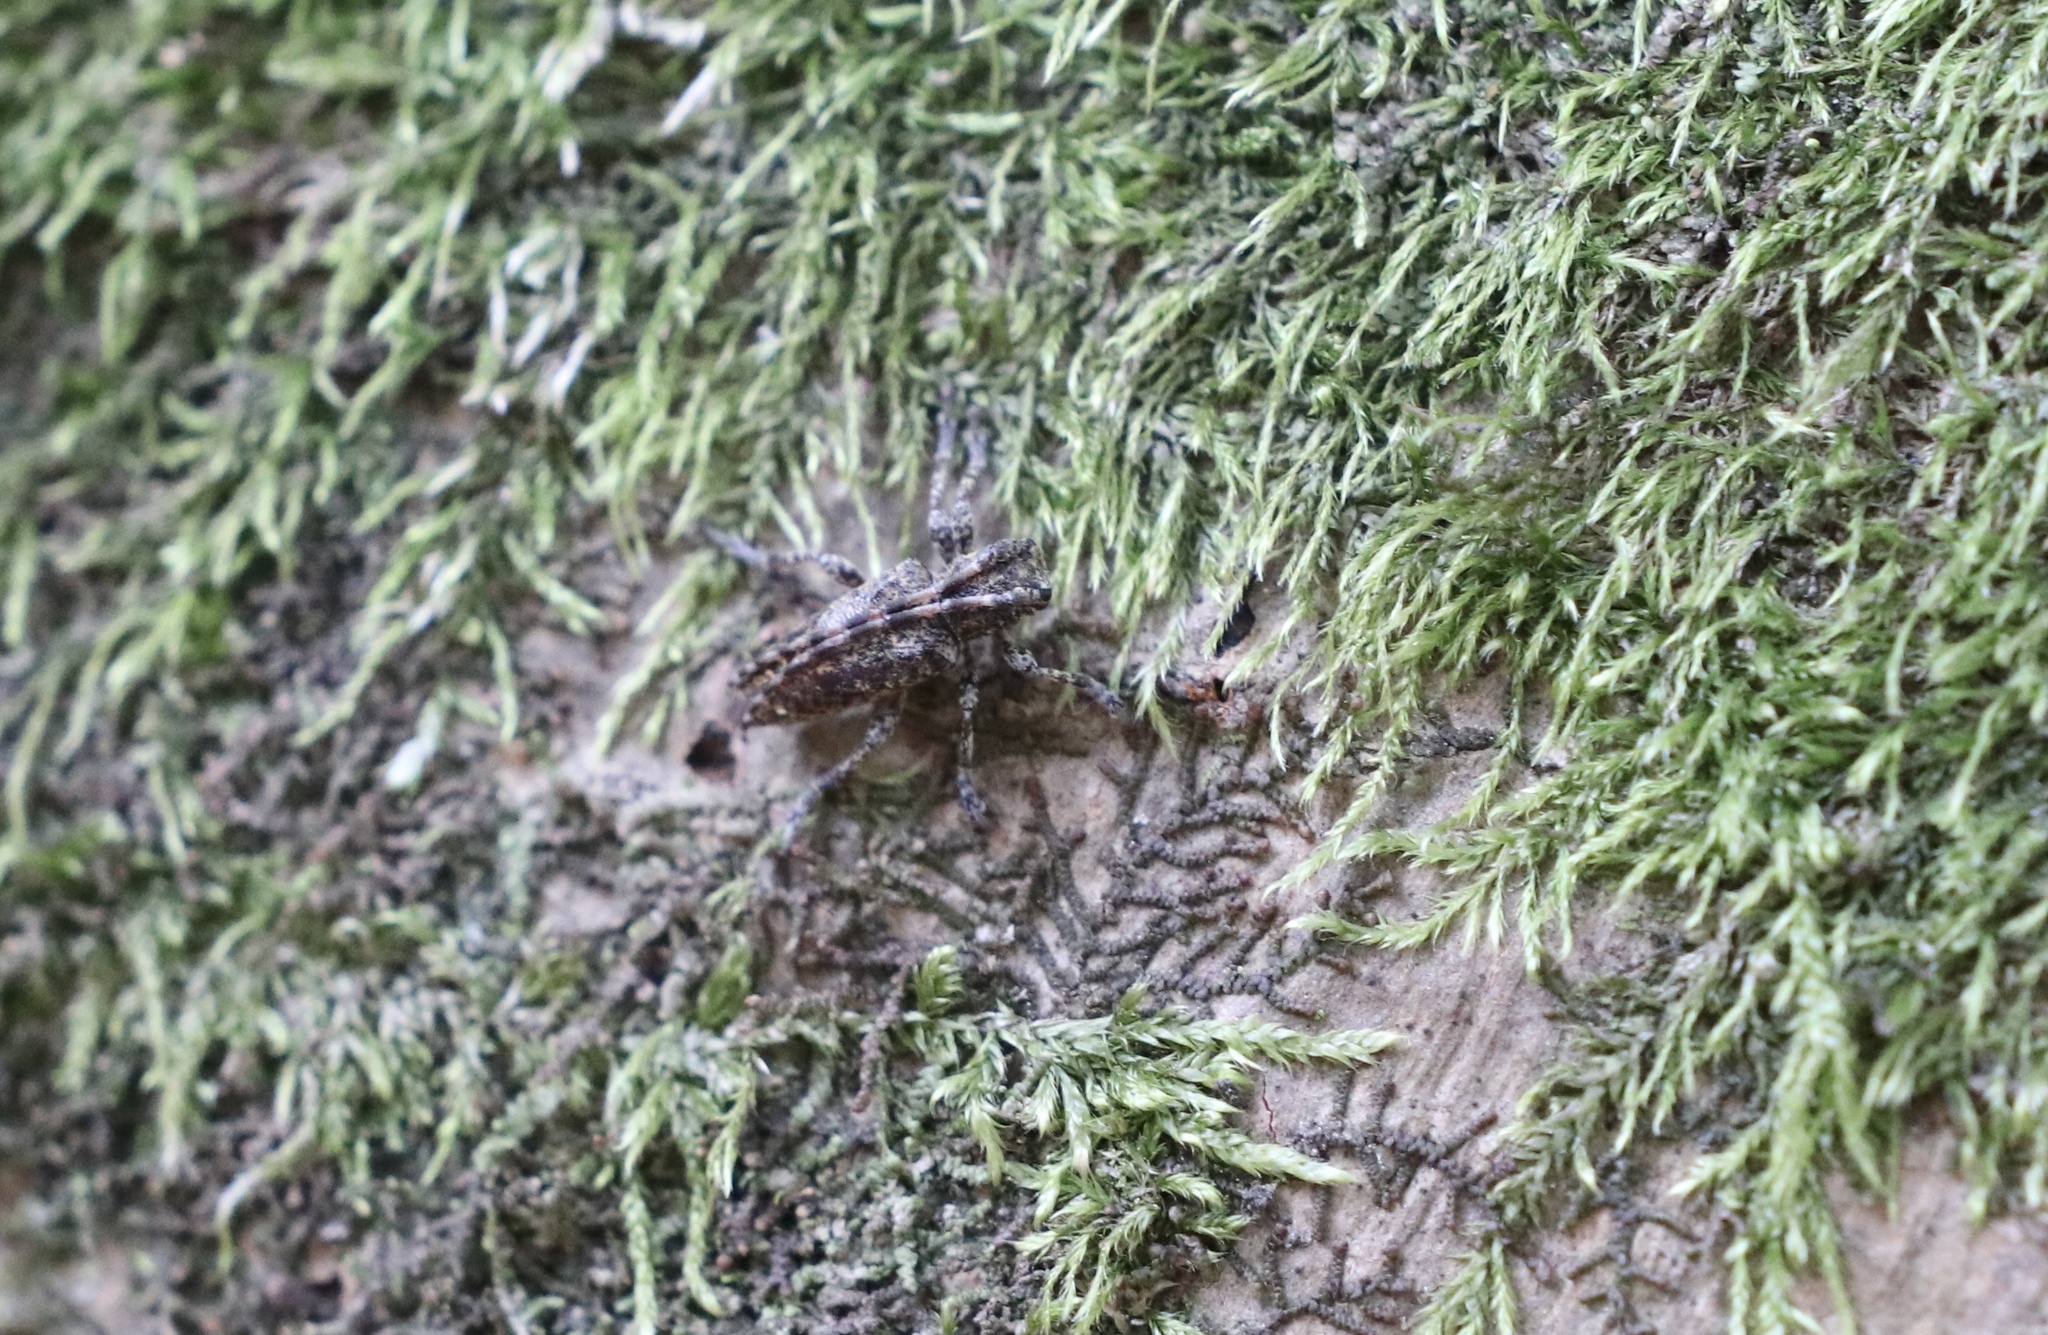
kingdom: Animalia
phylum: Arthropoda
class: Insecta
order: Coleoptera
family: Cerambycidae
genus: Aconopterus
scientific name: Aconopterus cristatipennis
